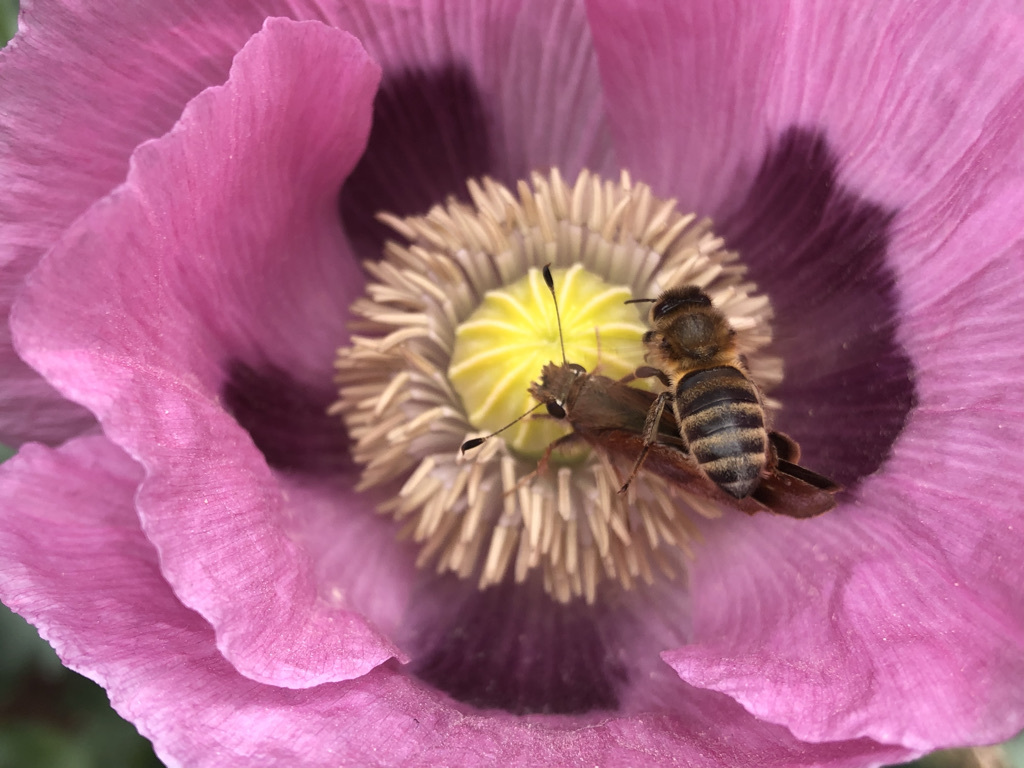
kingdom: Animalia
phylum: Arthropoda
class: Insecta
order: Hymenoptera
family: Apidae
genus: Apis
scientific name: Apis mellifera
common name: Honey bee
